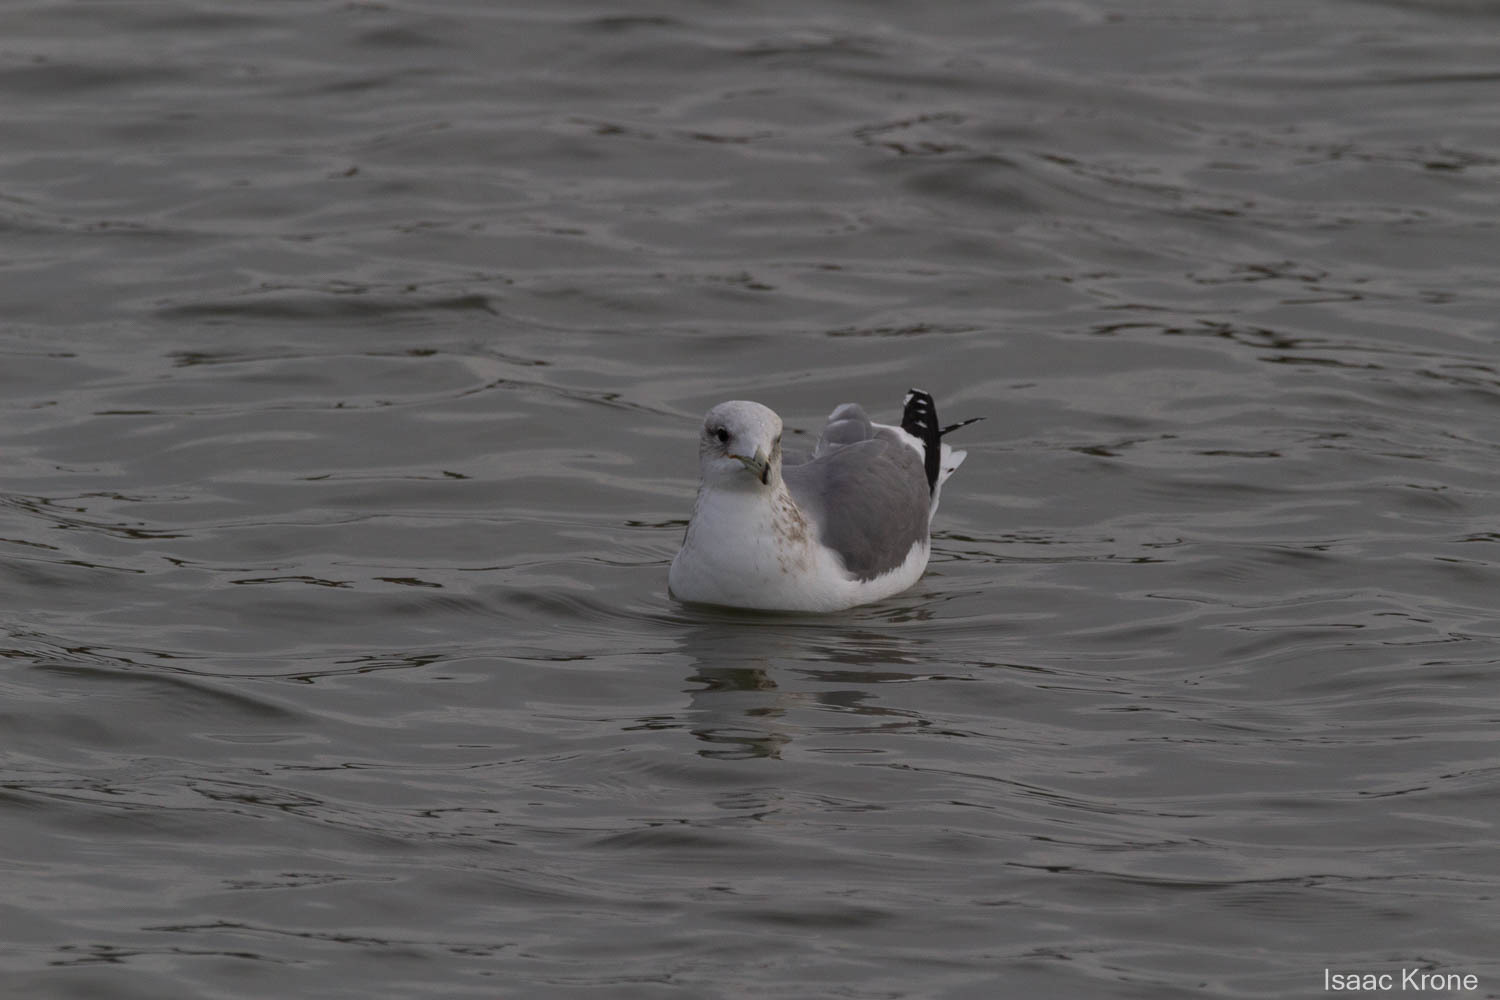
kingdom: Animalia
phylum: Chordata
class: Aves
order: Charadriiformes
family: Laridae
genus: Larus
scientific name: Larus californicus
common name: California gull
